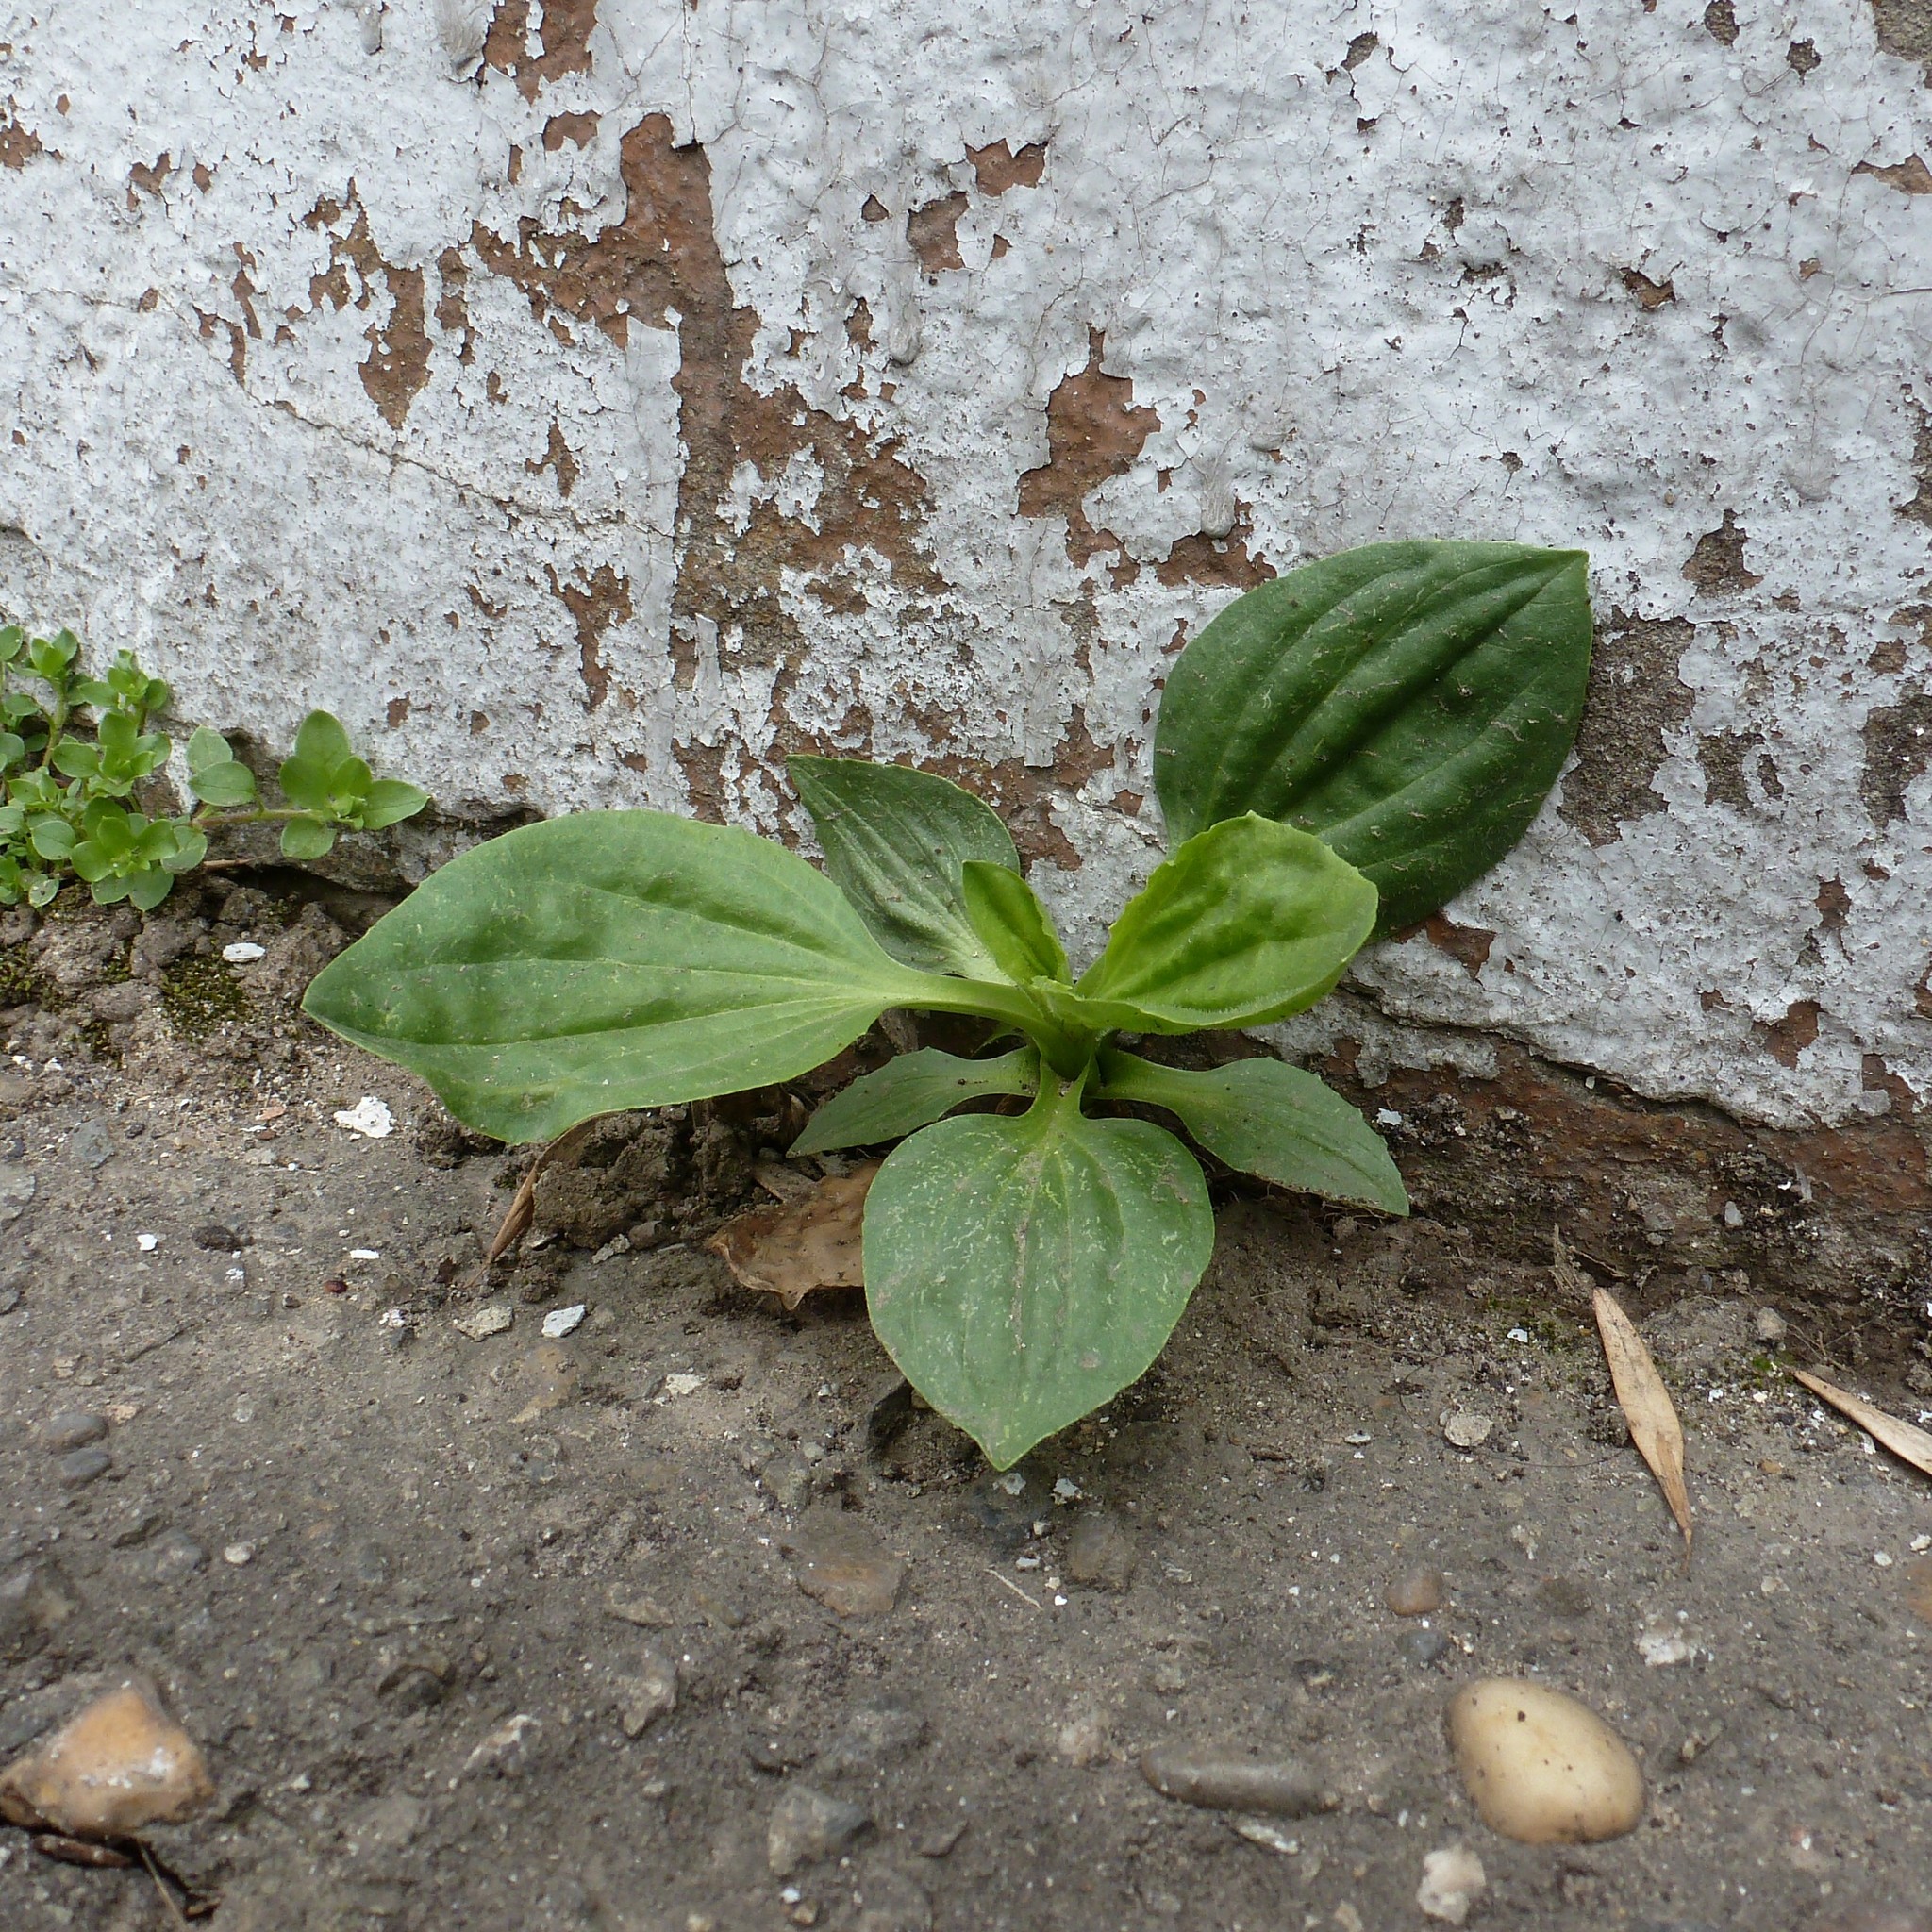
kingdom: Plantae
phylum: Tracheophyta
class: Magnoliopsida
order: Lamiales
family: Plantaginaceae
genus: Plantago
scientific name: Plantago major
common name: Common plantain
